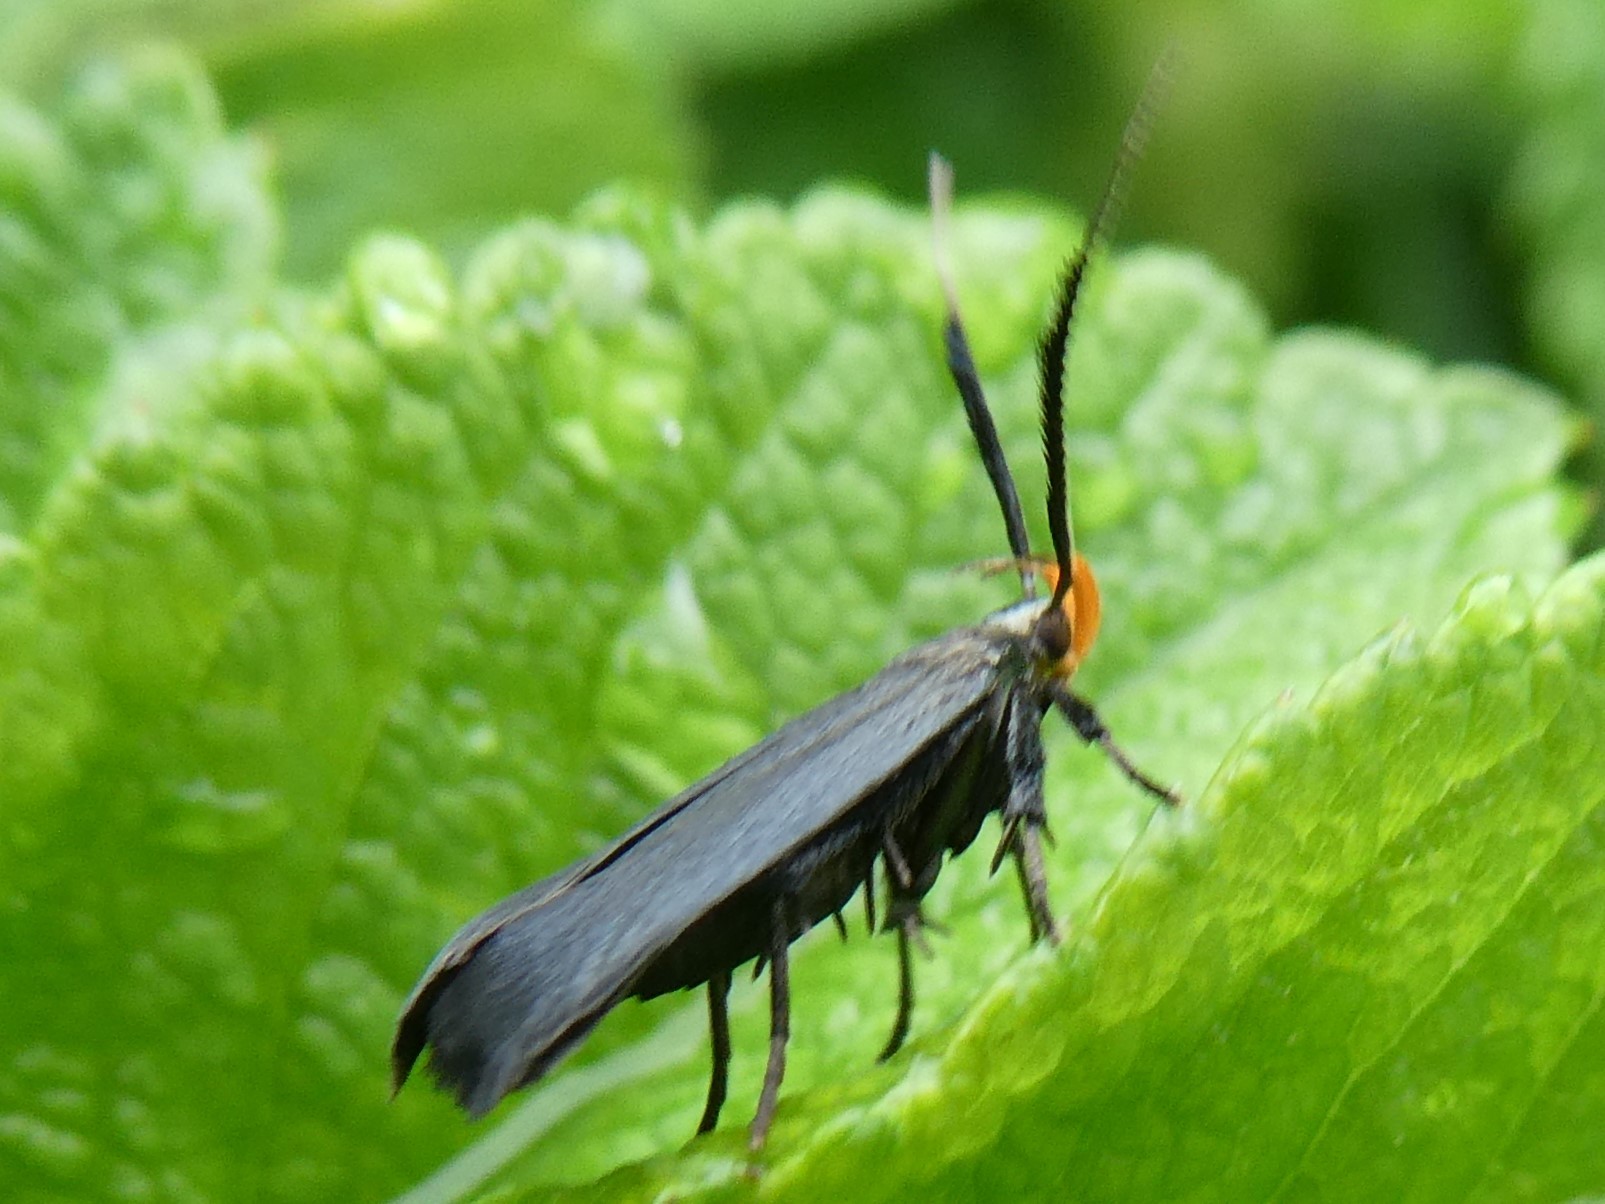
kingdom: Animalia
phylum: Arthropoda
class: Insecta
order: Lepidoptera
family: Gelechiidae
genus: Dichomeris
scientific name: Dichomeris nonstrigella
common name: Little devil moth
